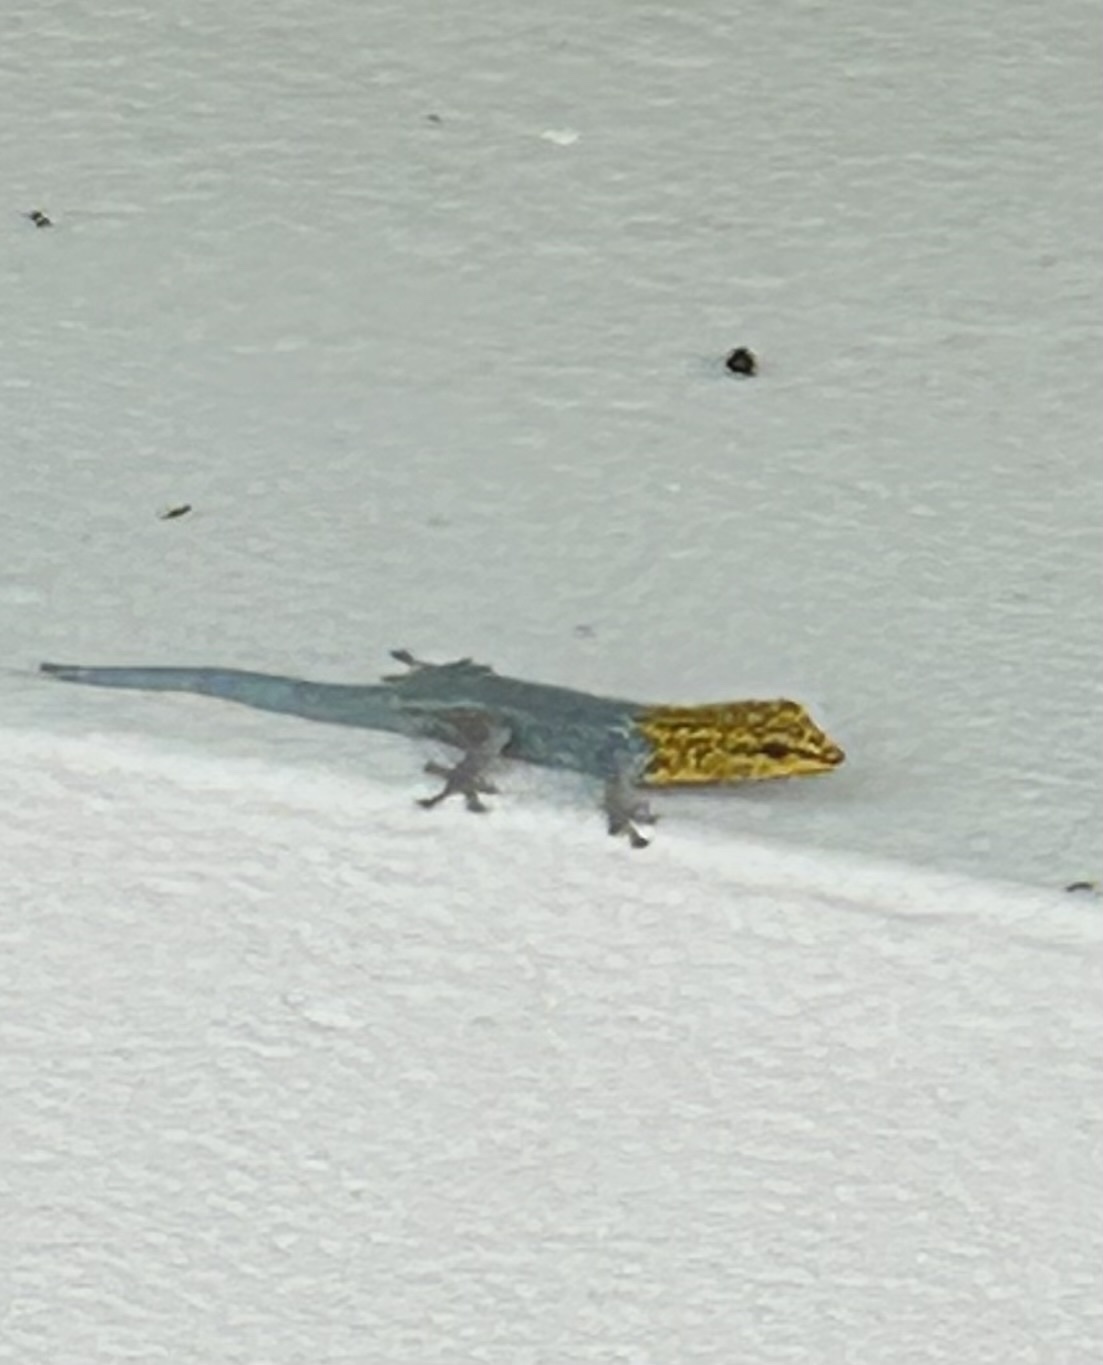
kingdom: Animalia
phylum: Chordata
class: Squamata
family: Gekkonidae
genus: Lygodactylus
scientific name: Lygodactylus picturatus
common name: Painted dwarf gecko
